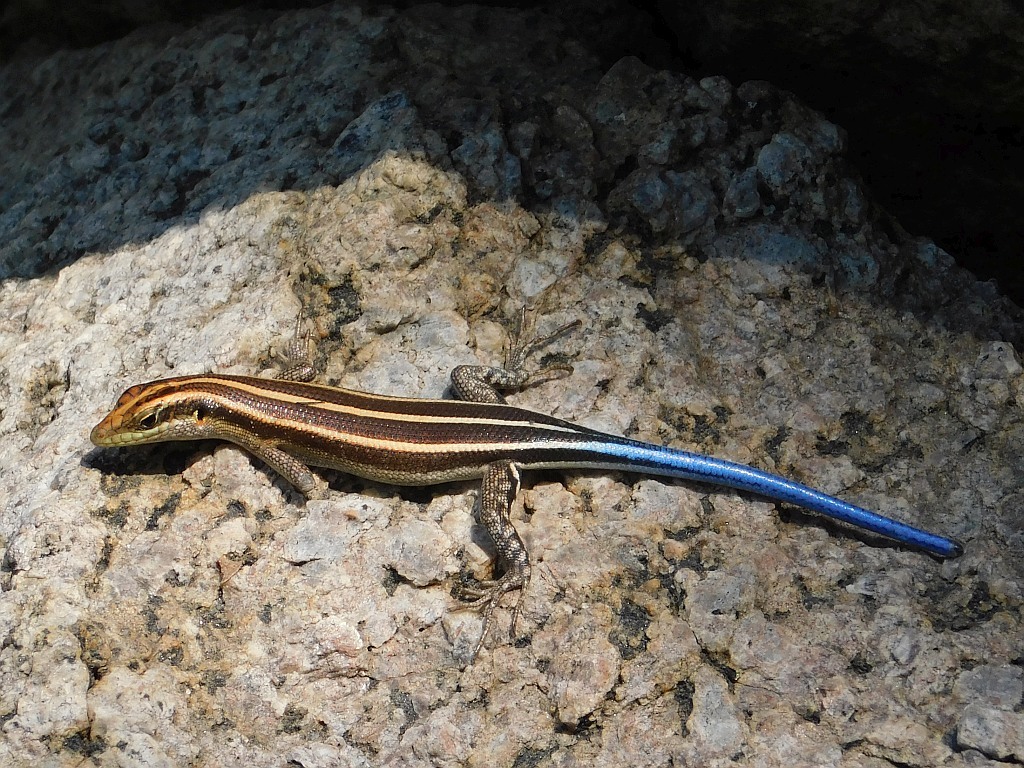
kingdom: Animalia
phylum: Chordata
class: Squamata
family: Scincidae
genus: Trachylepis
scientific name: Trachylepis margaritifera
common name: Rainbow skink
